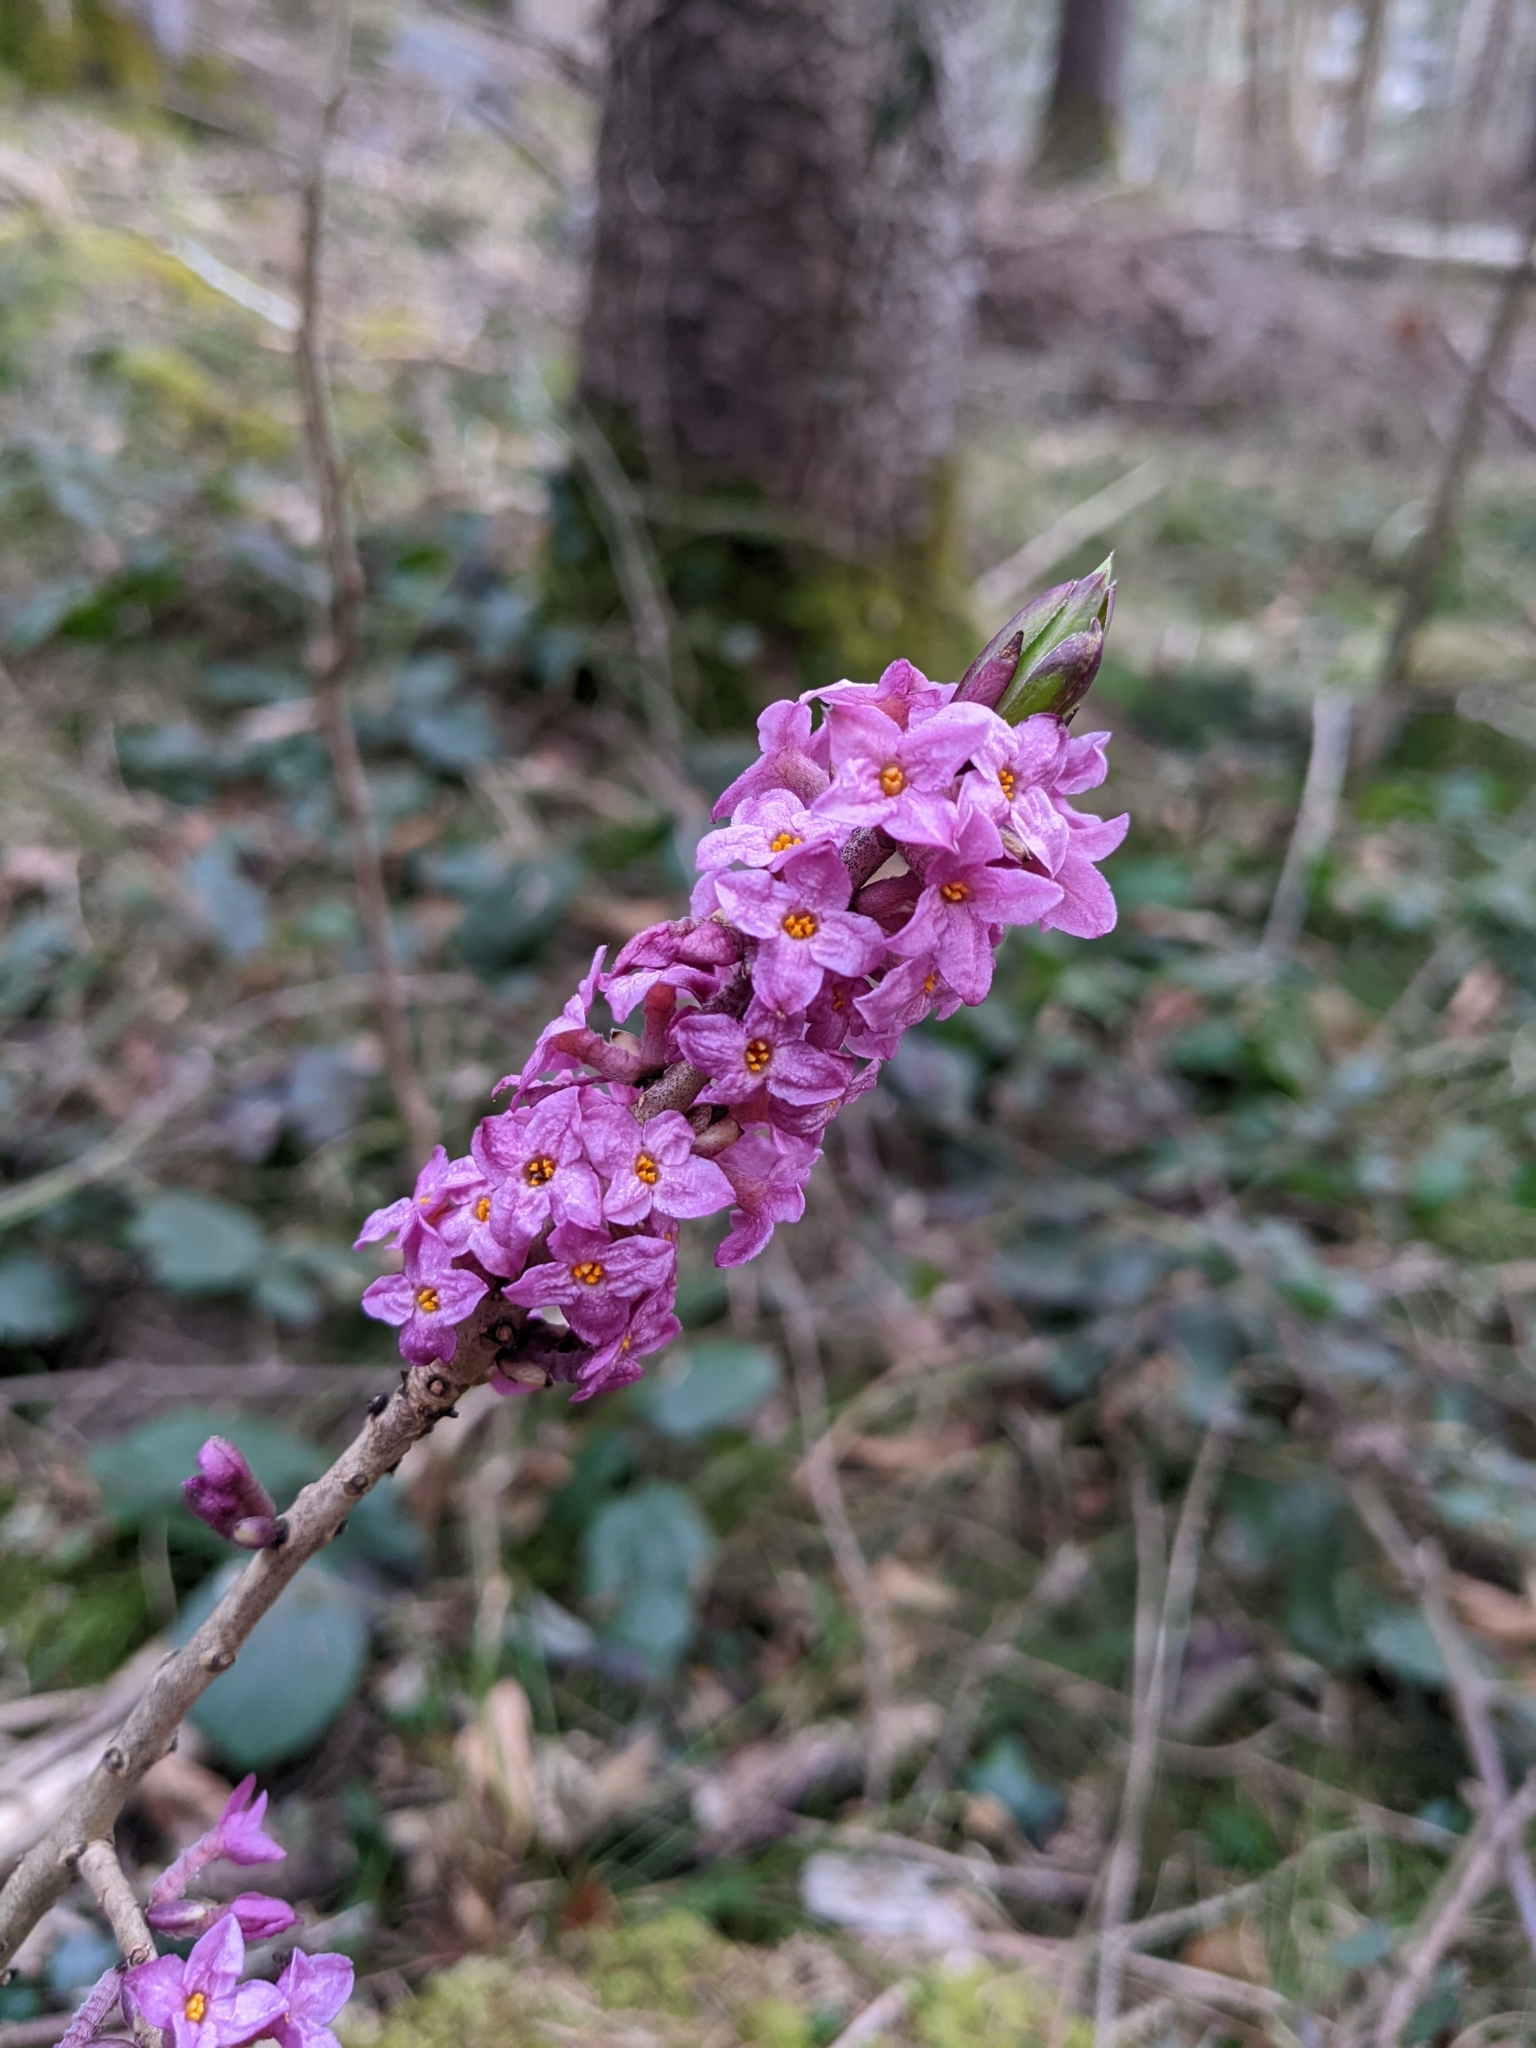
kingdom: Plantae
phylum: Tracheophyta
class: Magnoliopsida
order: Malvales
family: Thymelaeaceae
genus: Daphne
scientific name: Daphne mezereum
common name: Mezereon
